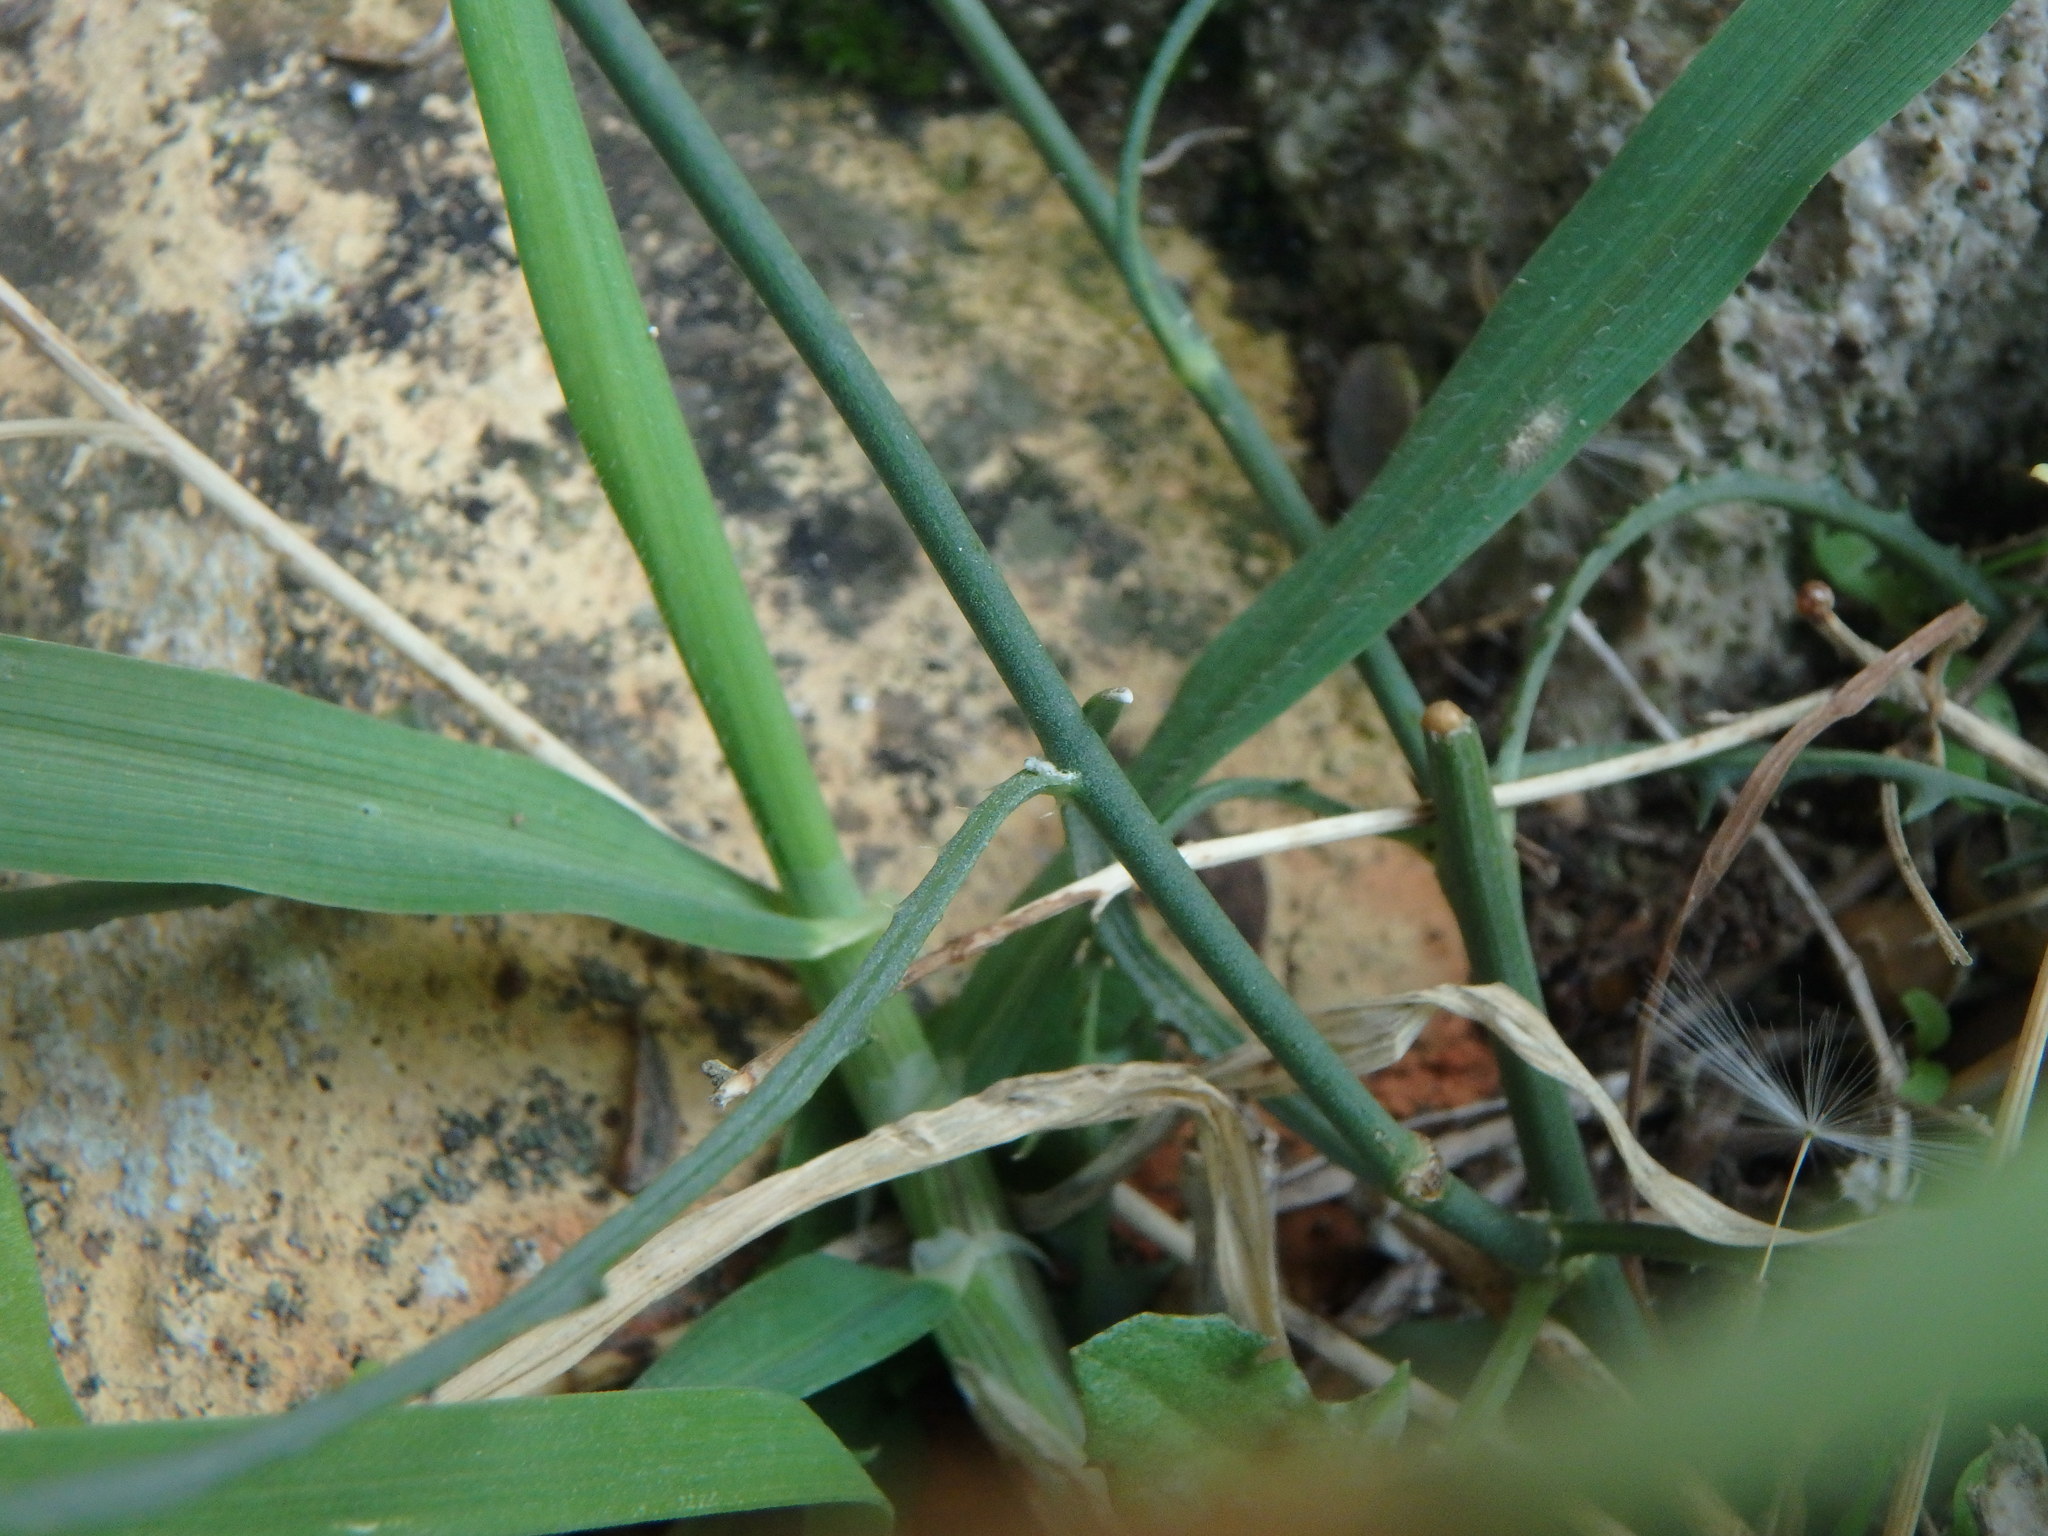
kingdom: Plantae
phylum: Tracheophyta
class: Magnoliopsida
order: Asterales
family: Asteraceae
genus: Chondrilla
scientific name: Chondrilla juncea
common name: Skeleton weed
